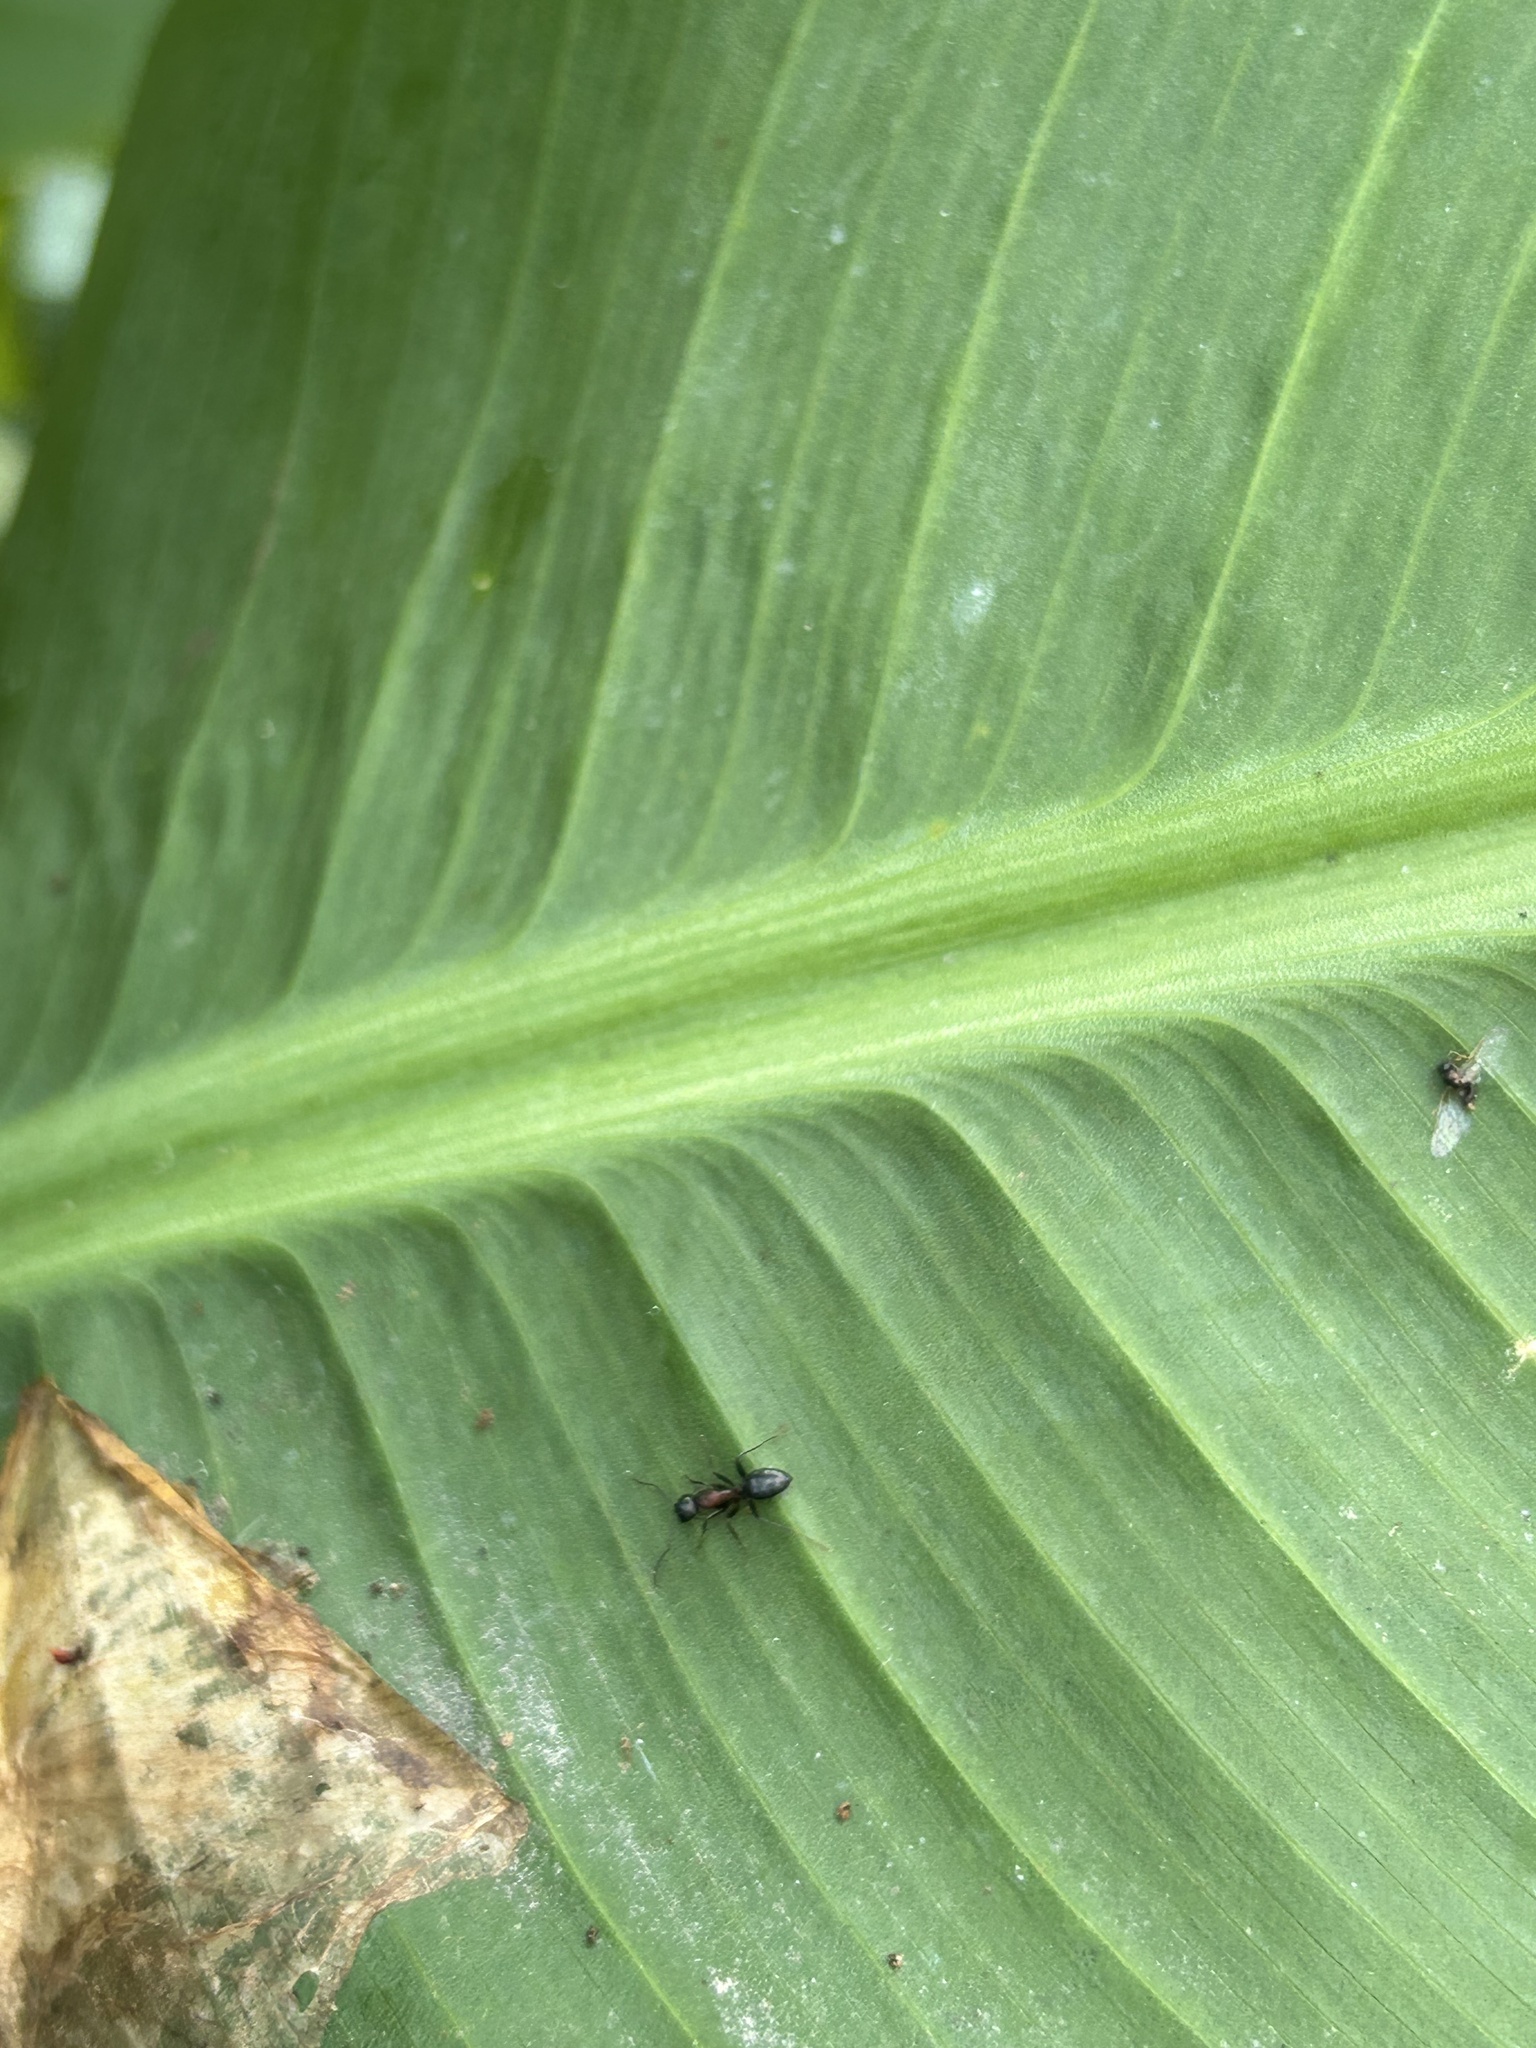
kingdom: Animalia
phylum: Arthropoda
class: Insecta
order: Hymenoptera
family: Formicidae
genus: Camponotus
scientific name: Camponotus novaeboracensis
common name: New york carpenter ant
